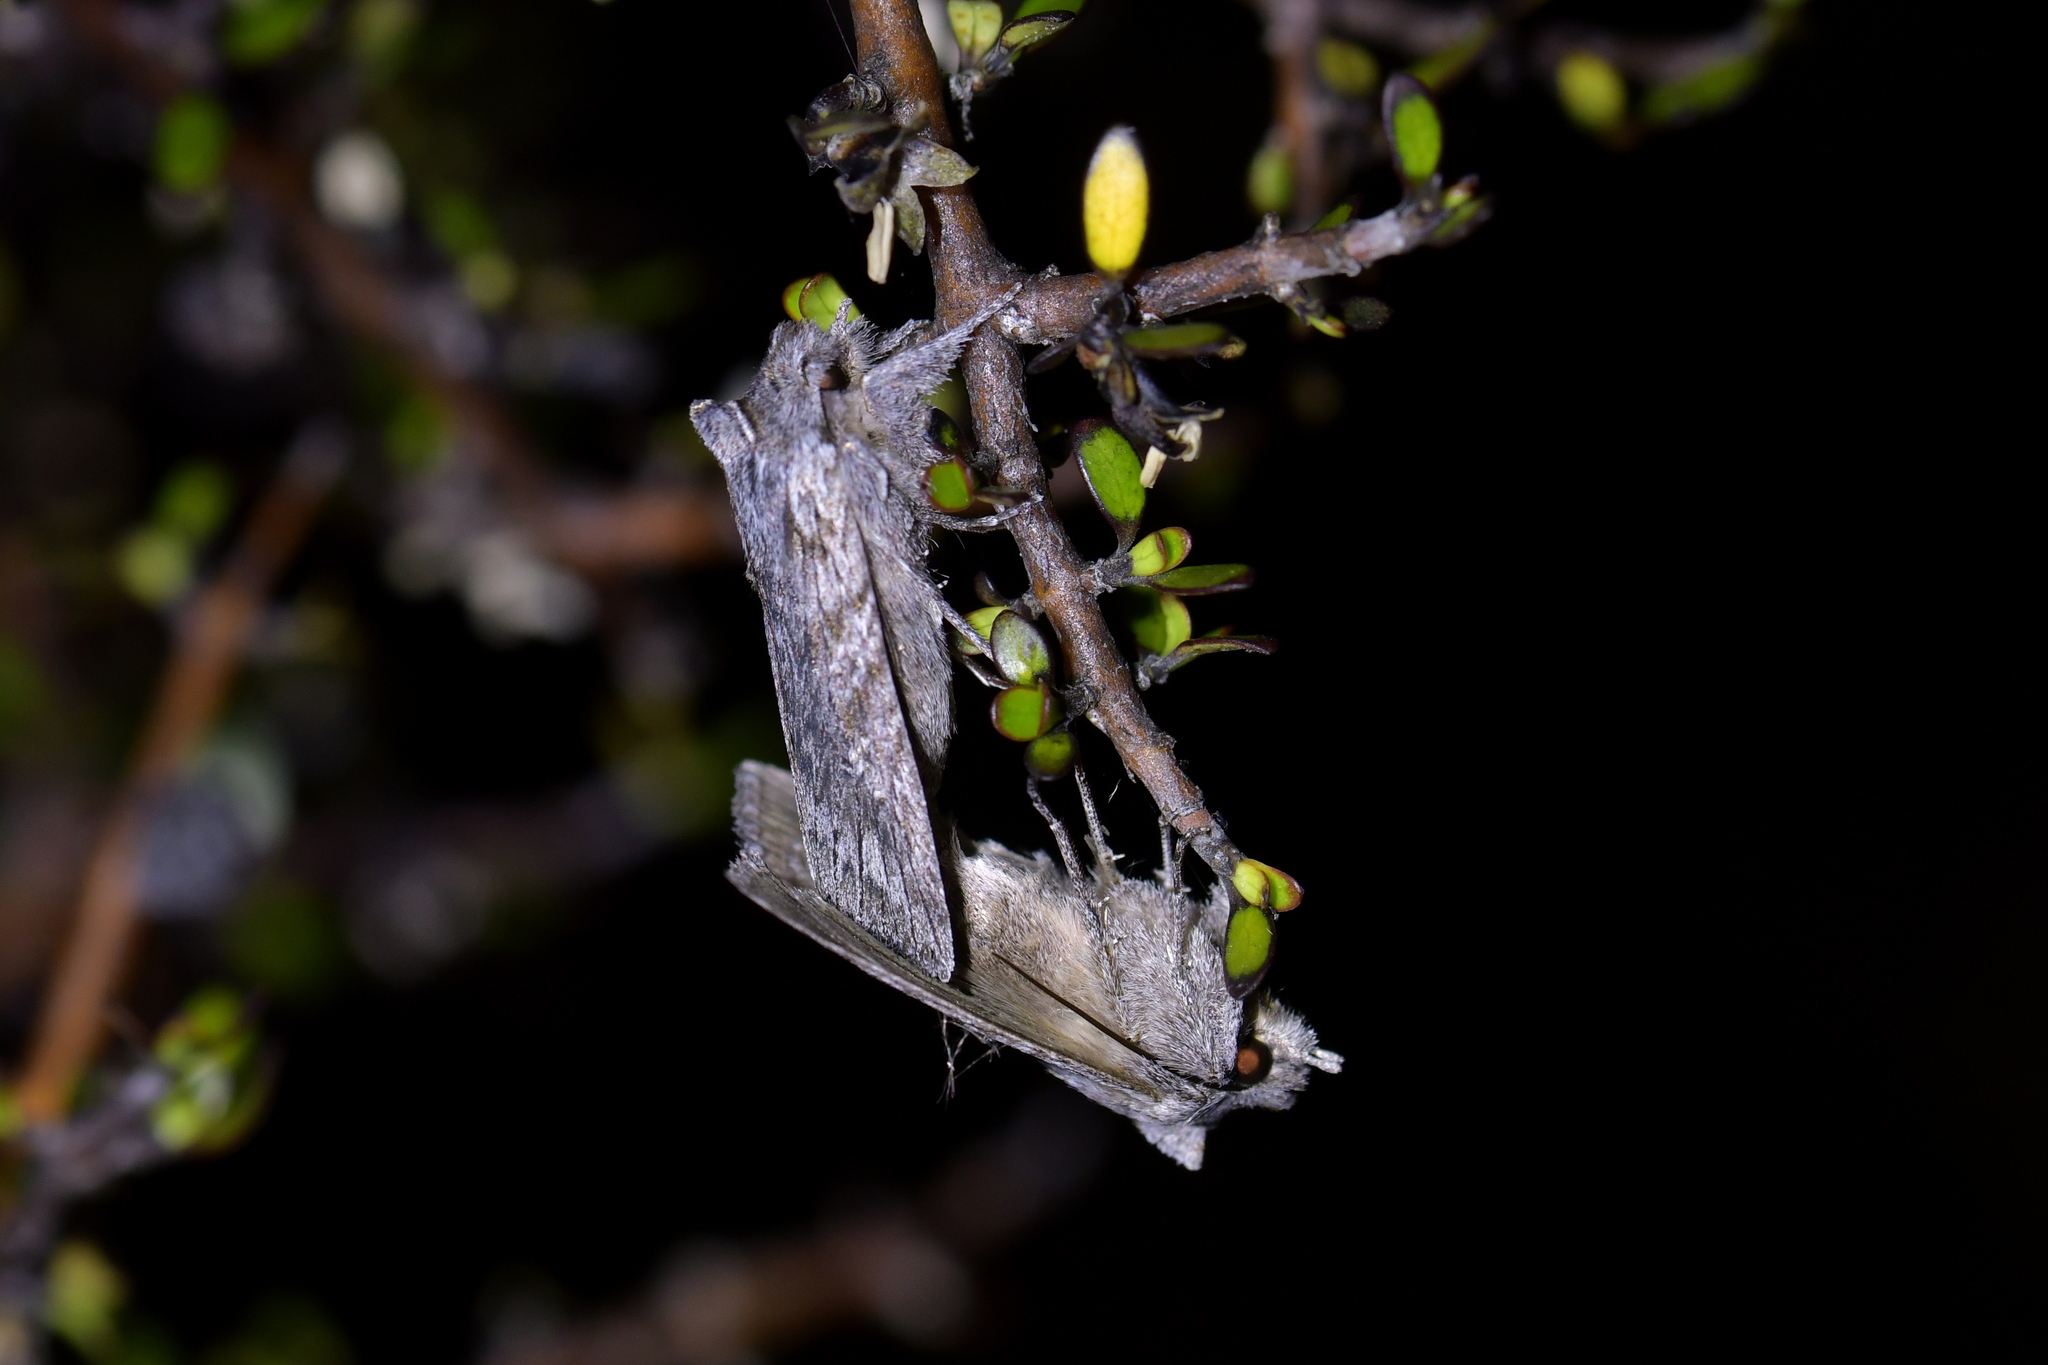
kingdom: Animalia
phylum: Arthropoda
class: Insecta
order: Lepidoptera
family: Noctuidae
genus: Physetica
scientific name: Physetica phricias
